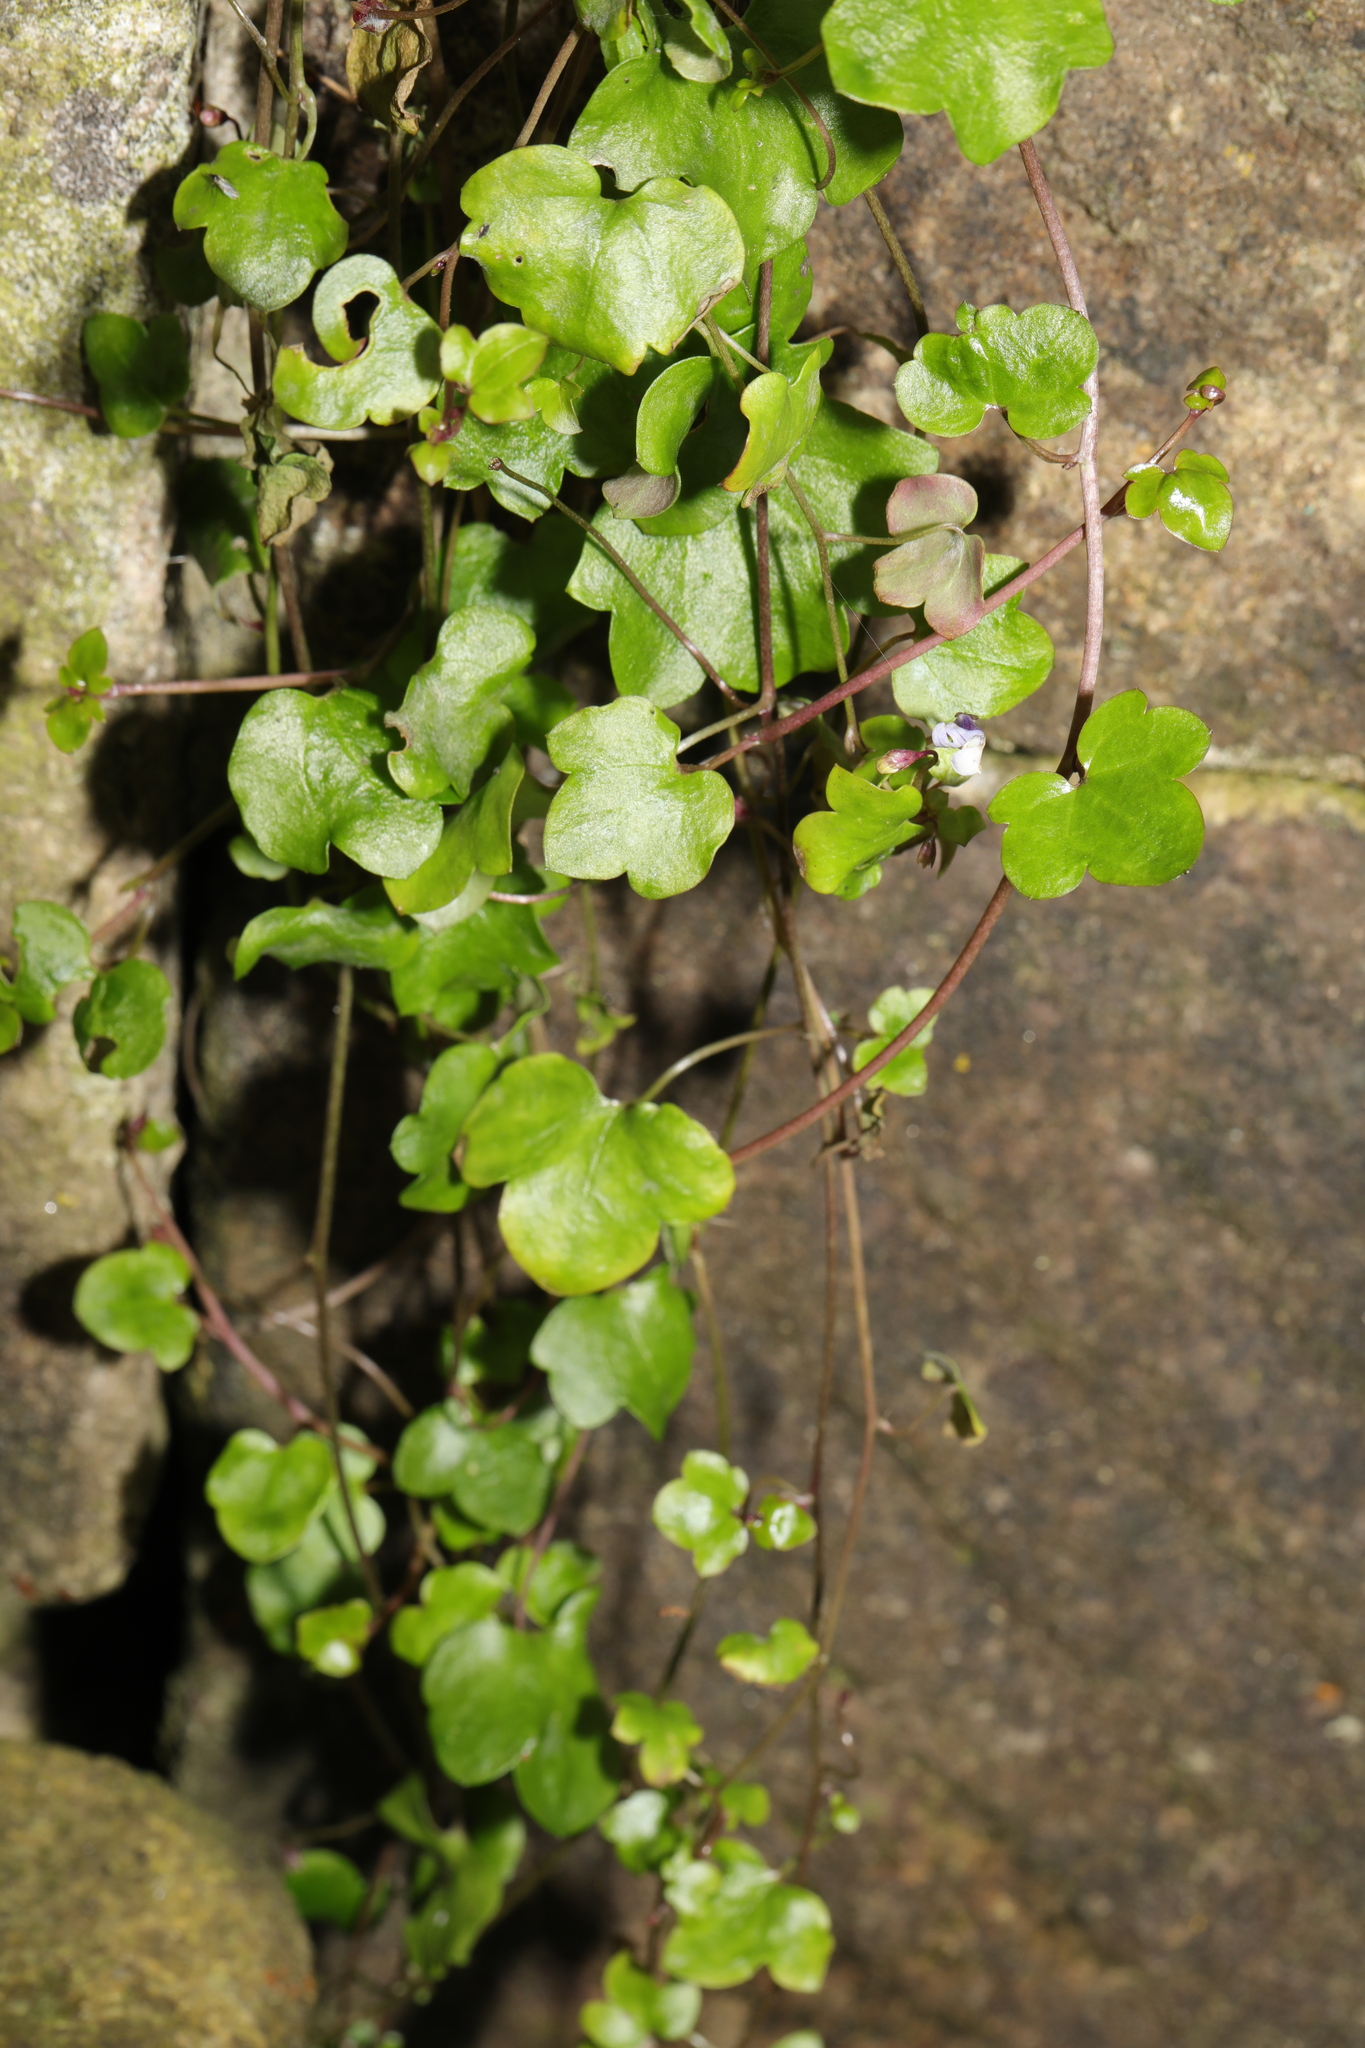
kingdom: Plantae
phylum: Tracheophyta
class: Magnoliopsida
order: Lamiales
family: Plantaginaceae
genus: Cymbalaria
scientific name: Cymbalaria muralis
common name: Ivy-leaved toadflax
